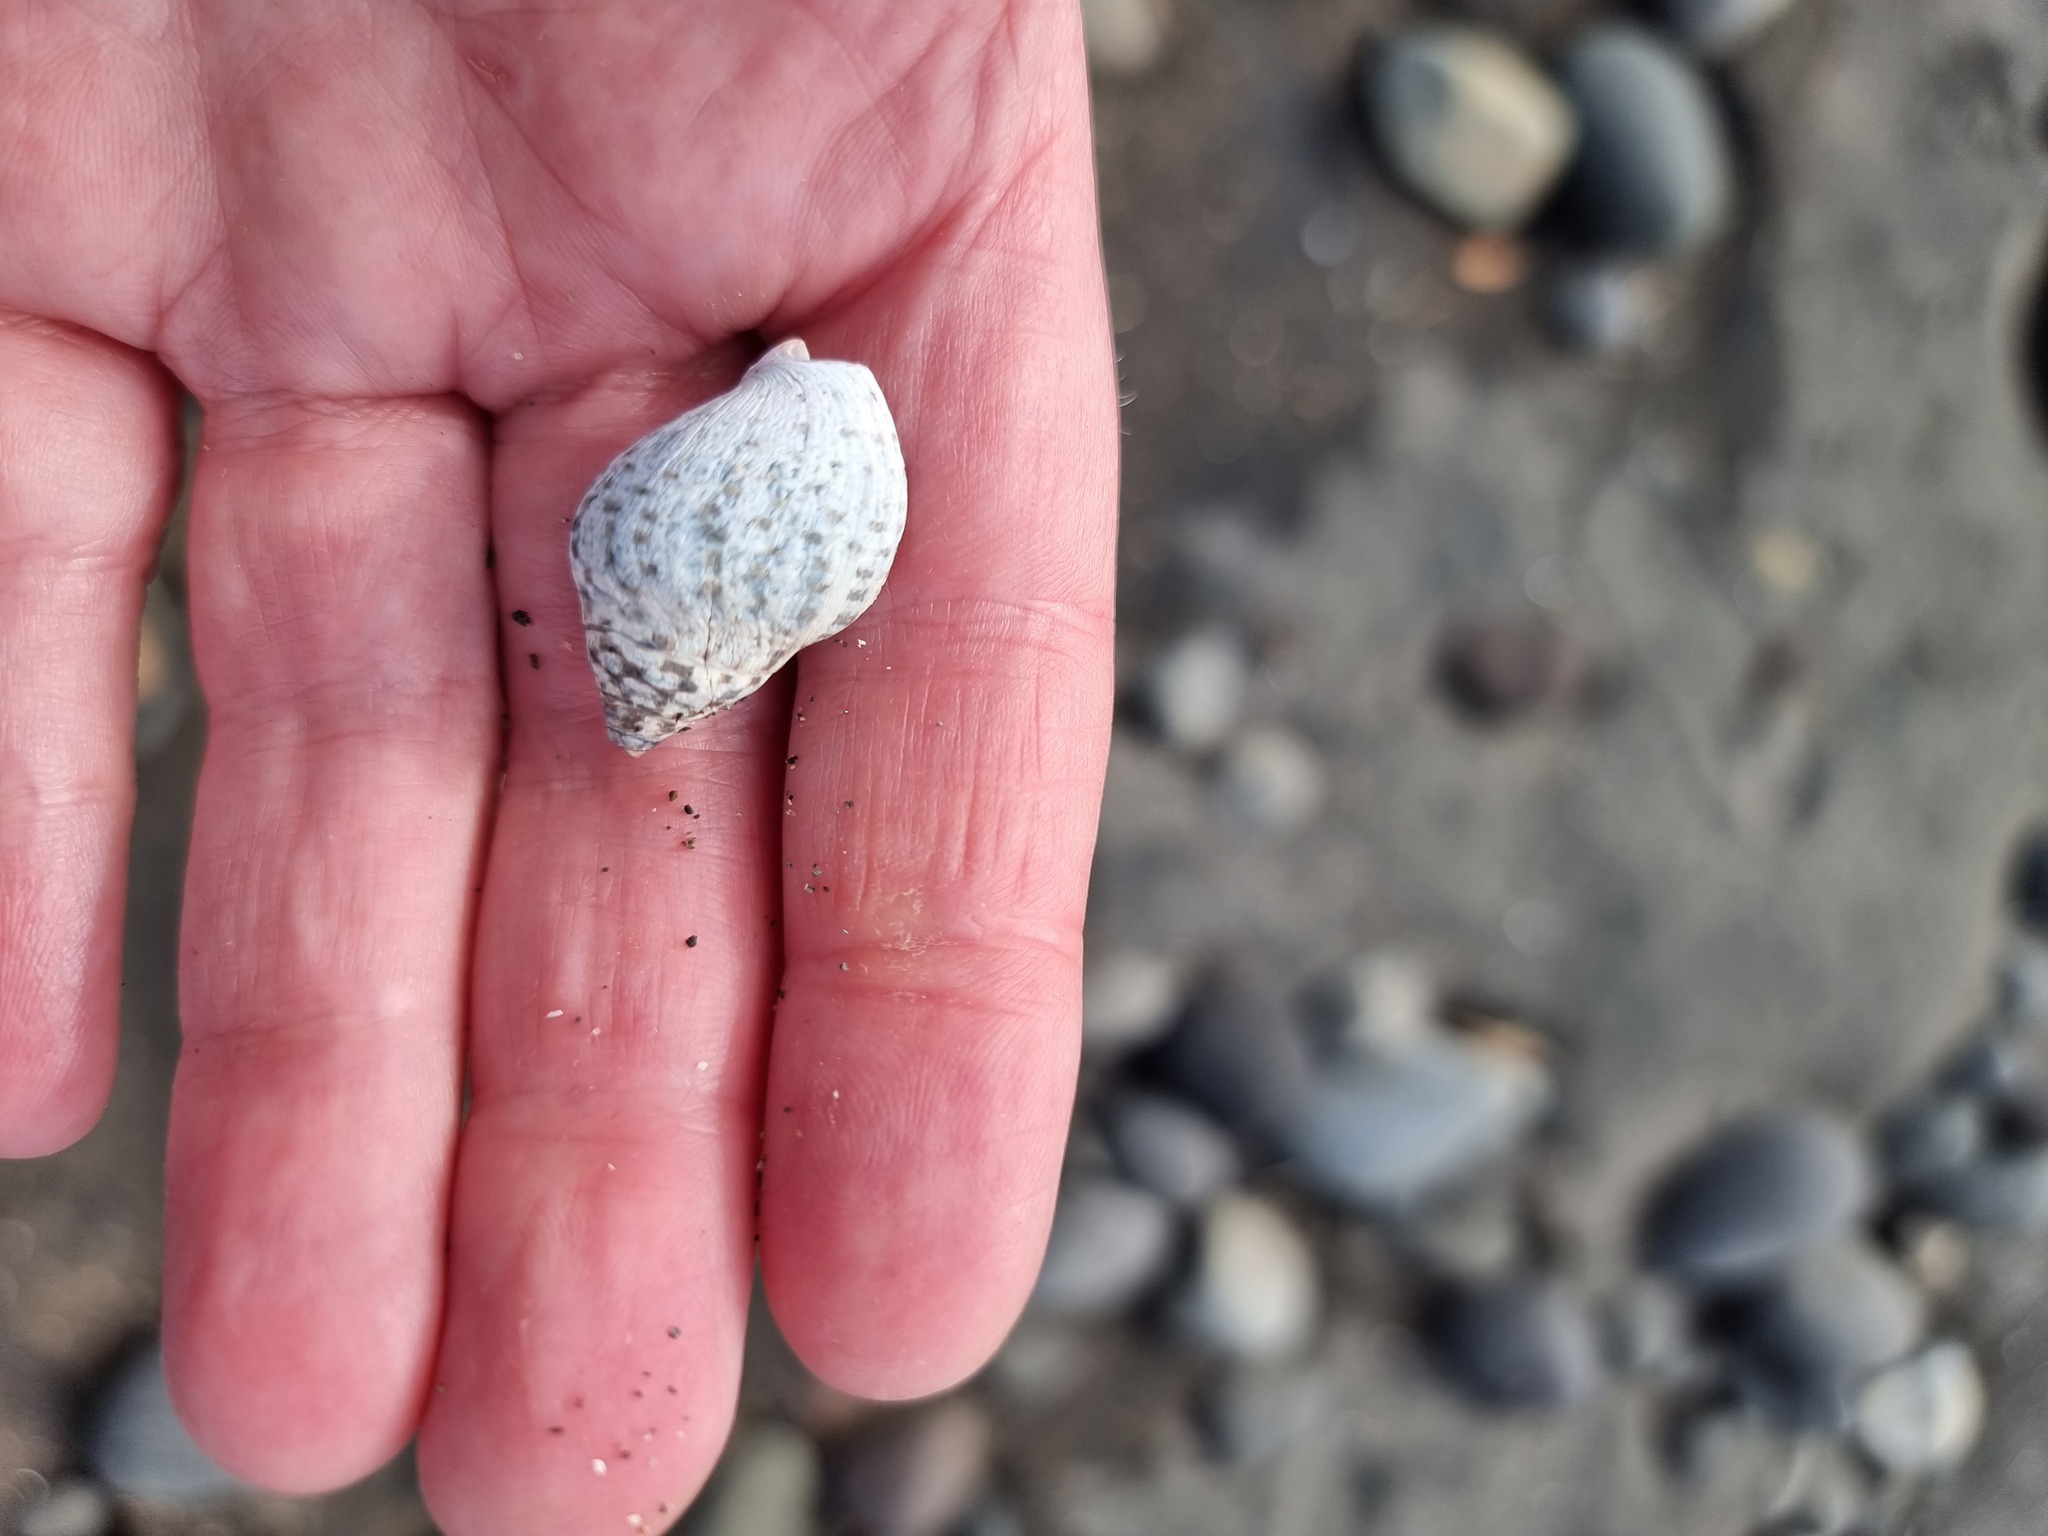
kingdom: Animalia
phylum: Mollusca
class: Gastropoda
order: Neogastropoda
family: Cominellidae
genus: Cominella
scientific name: Cominella maculosa
